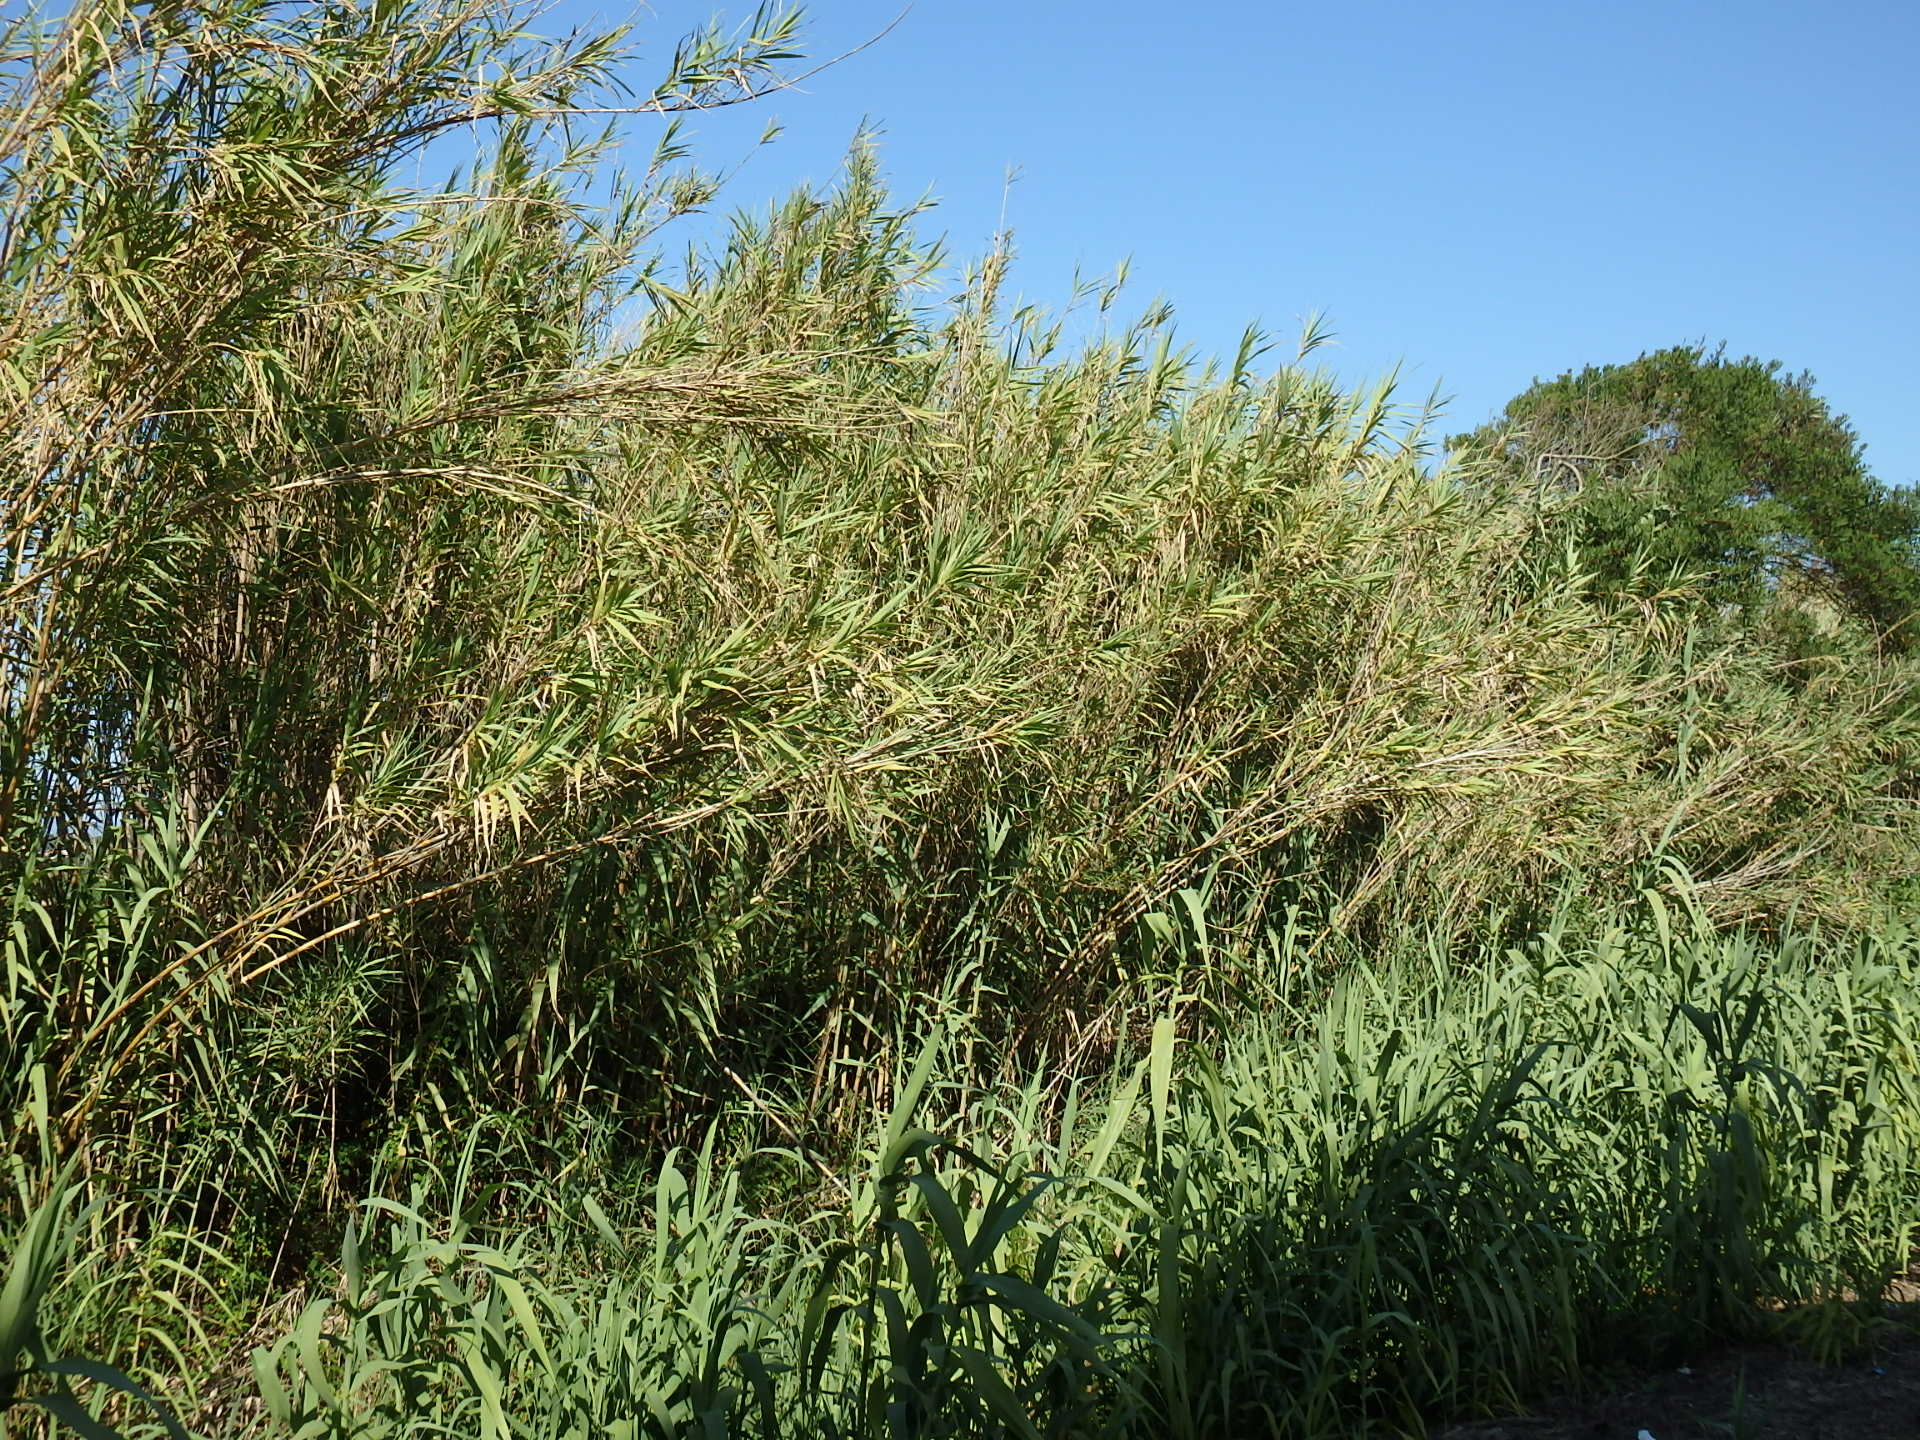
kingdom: Plantae
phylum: Tracheophyta
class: Liliopsida
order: Poales
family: Poaceae
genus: Arundo
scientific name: Arundo donax
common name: Giant reed
